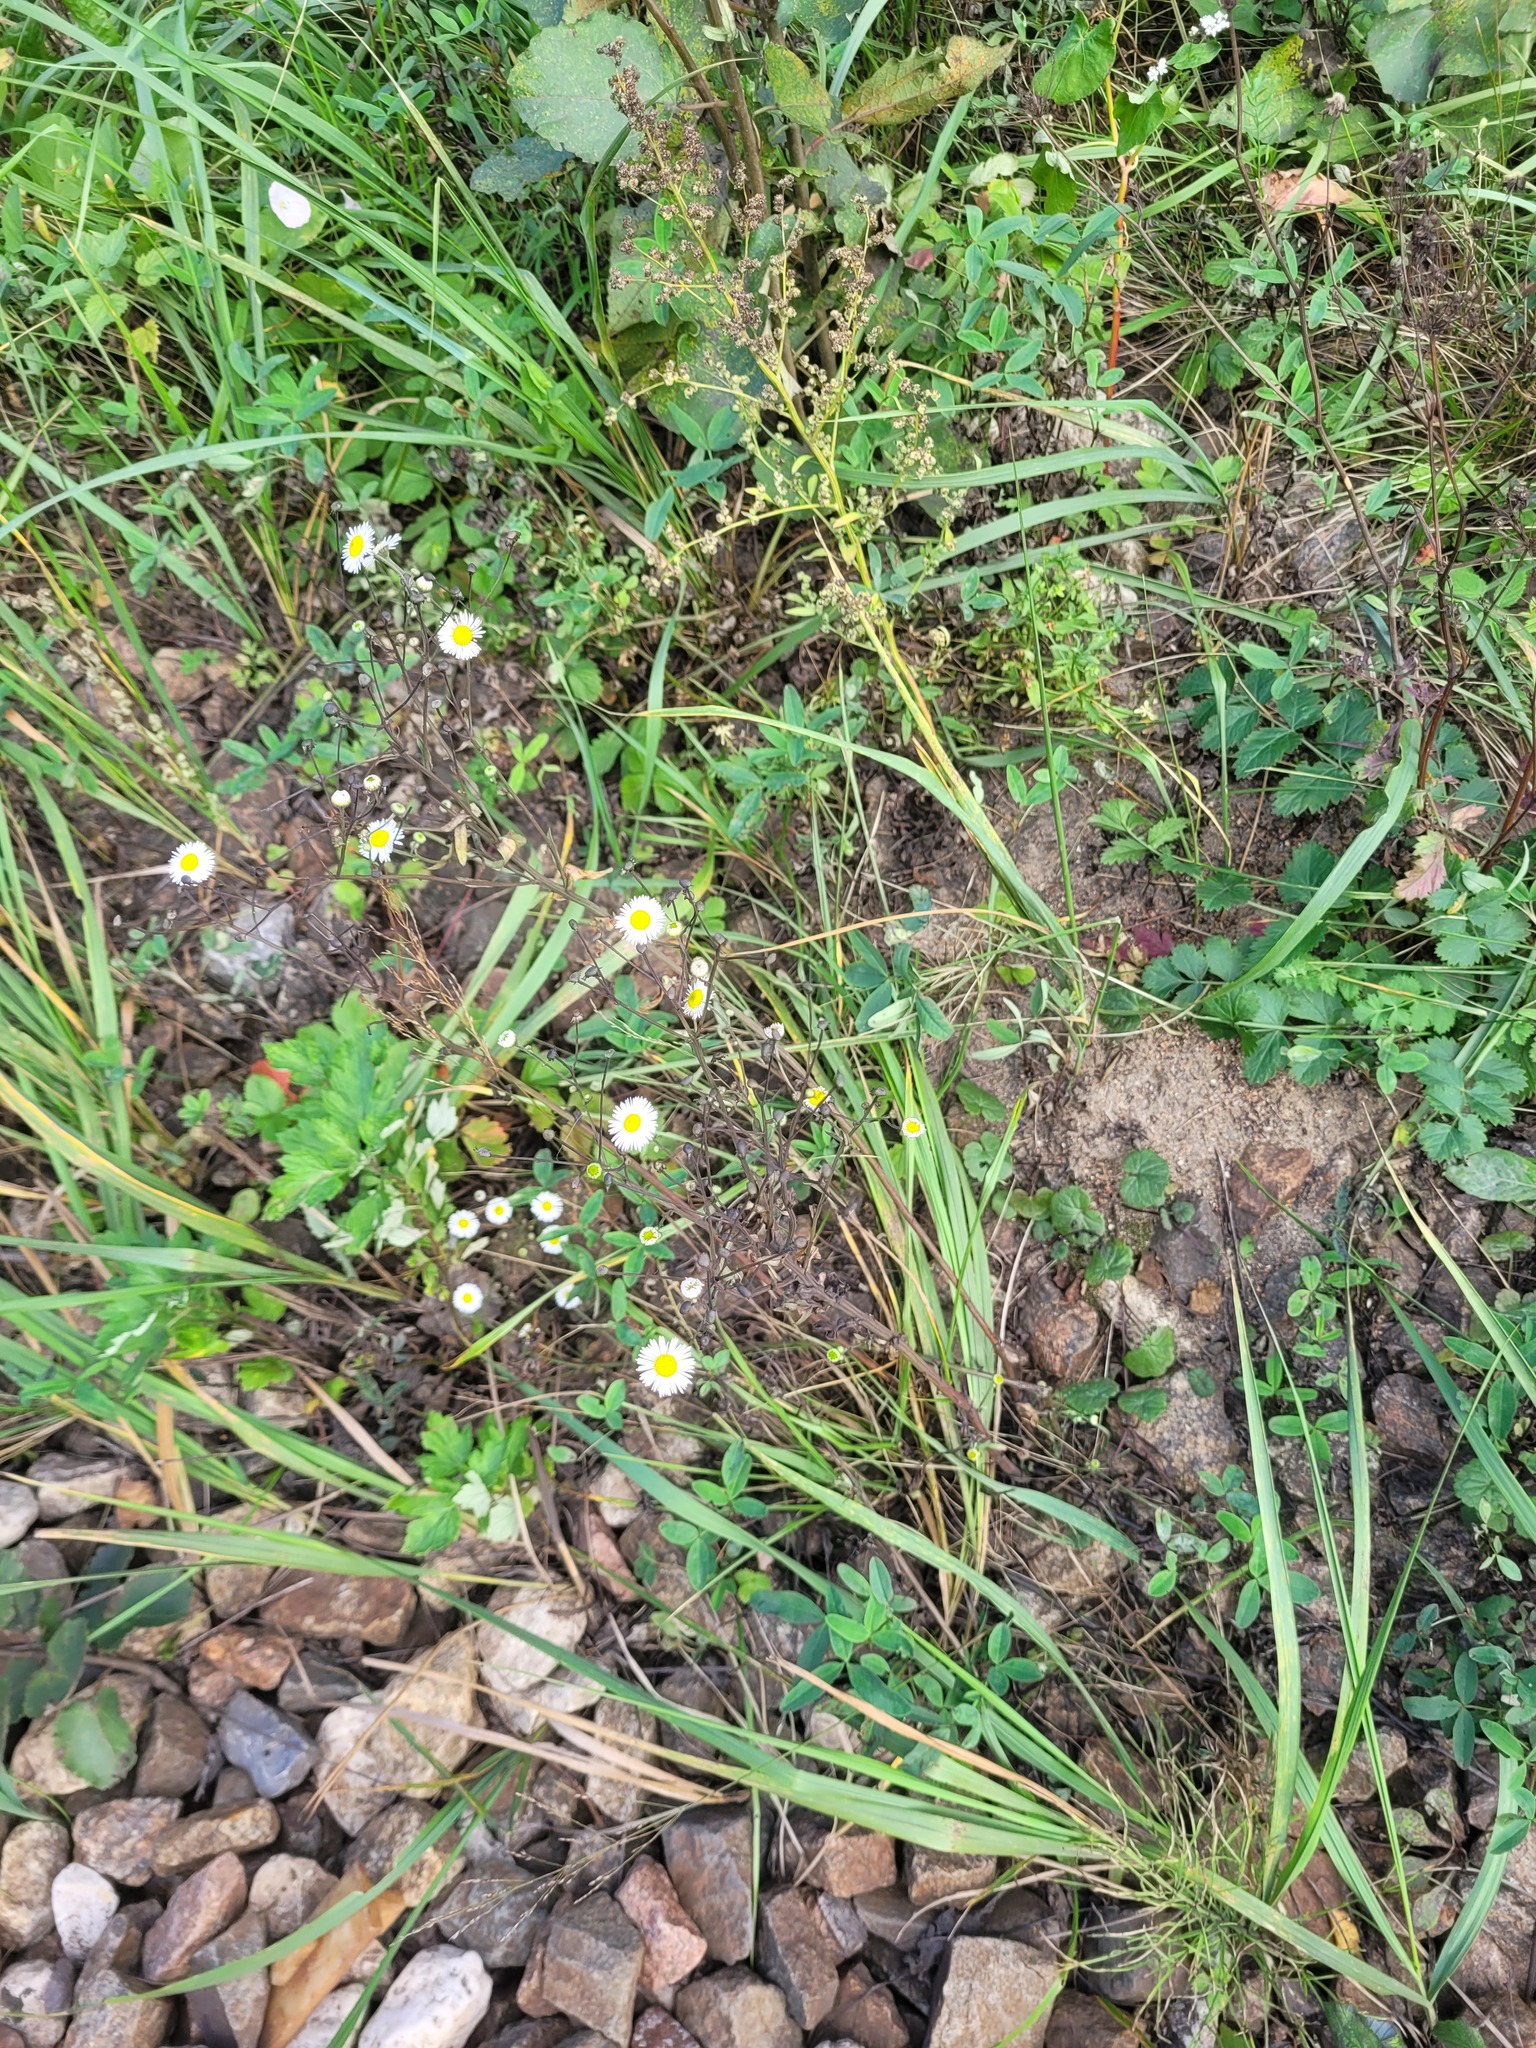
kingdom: Plantae
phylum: Tracheophyta
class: Magnoliopsida
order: Asterales
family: Asteraceae
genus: Erigeron
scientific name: Erigeron strigosus
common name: Common eastern fleabane
